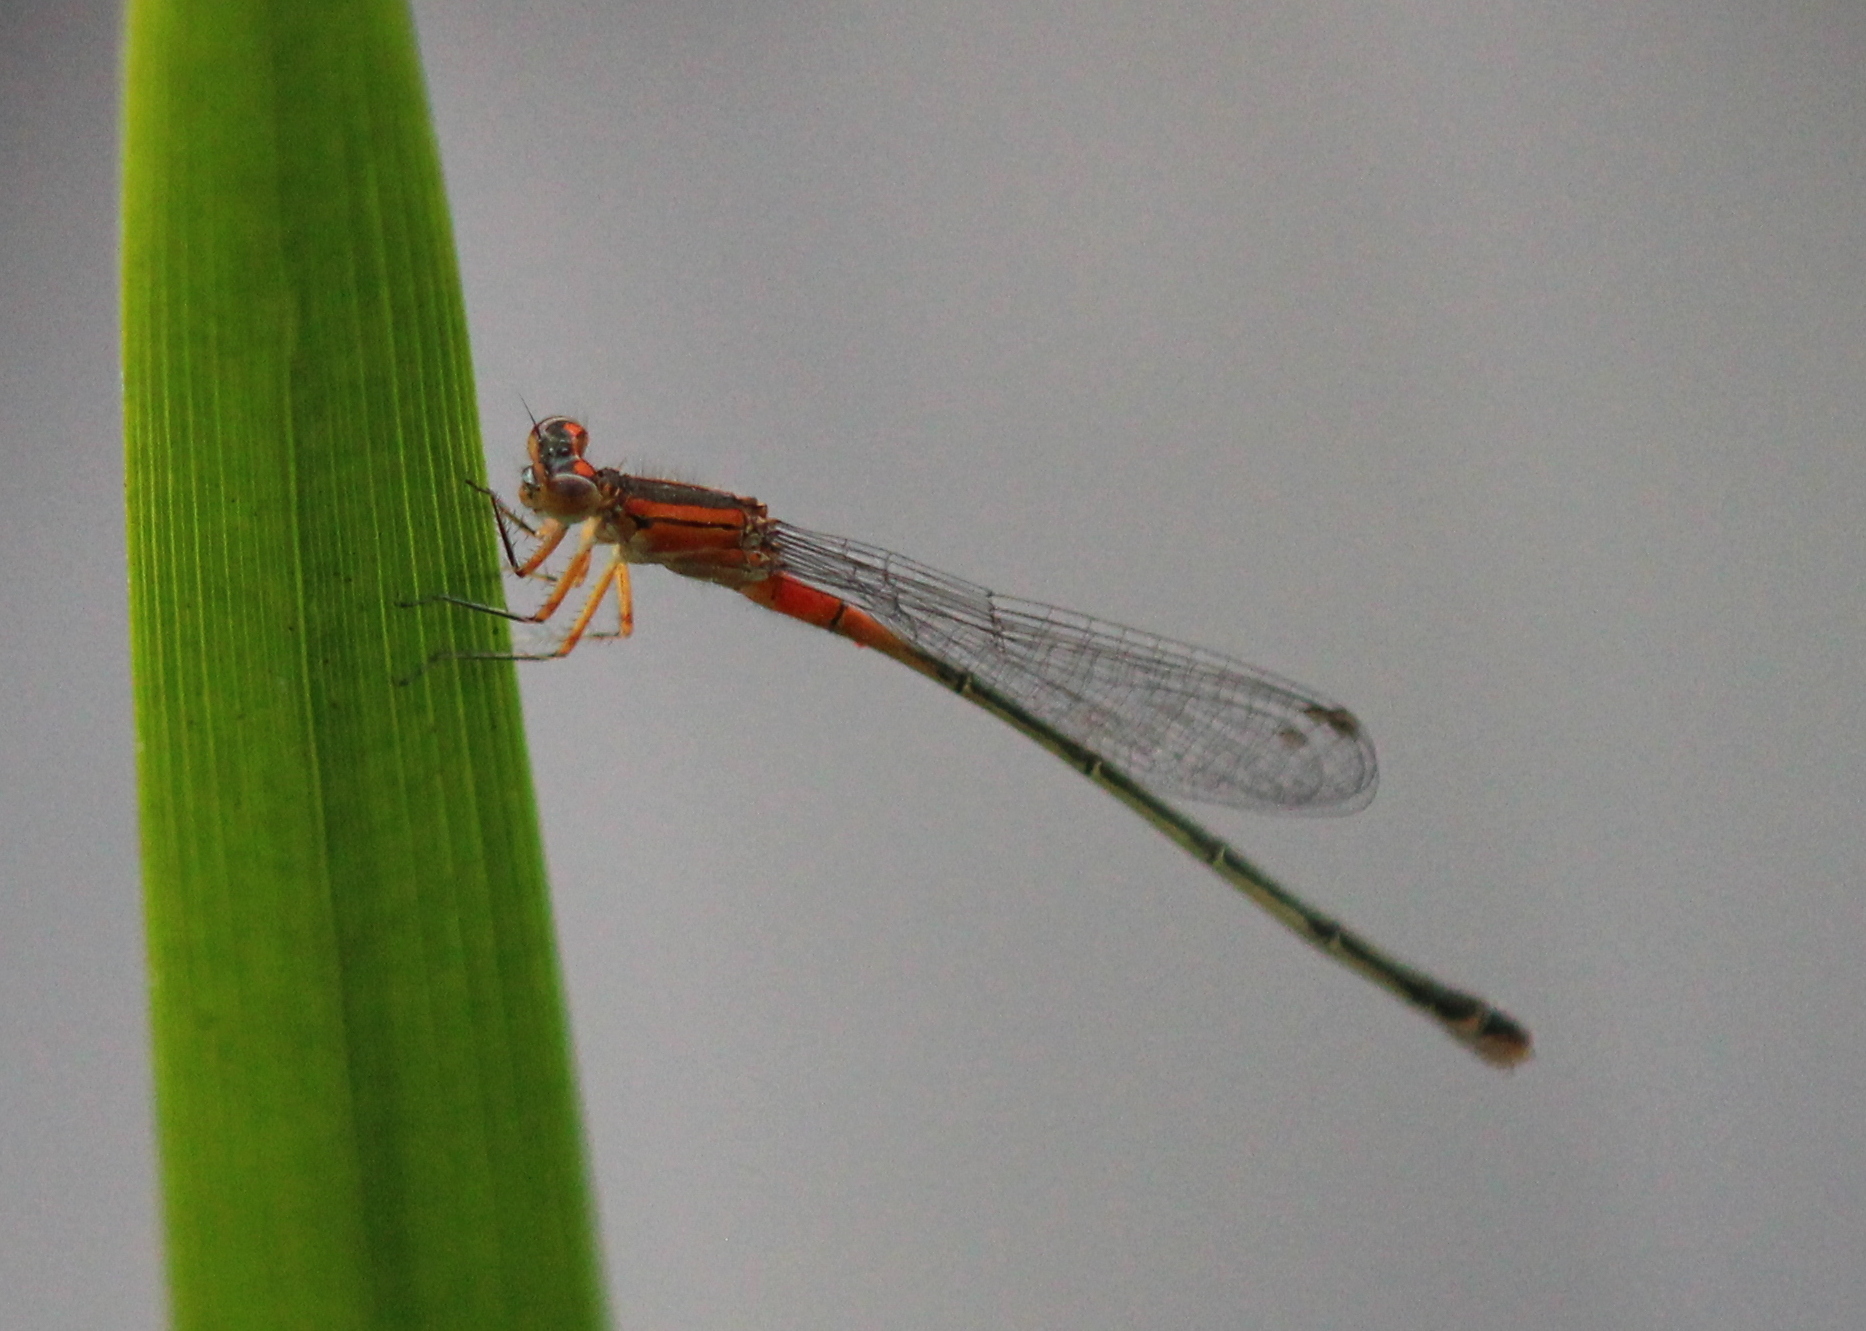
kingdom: Animalia
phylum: Arthropoda
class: Insecta
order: Odonata
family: Coenagrionidae
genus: Ischnura
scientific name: Ischnura verticalis
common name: Eastern forktail
